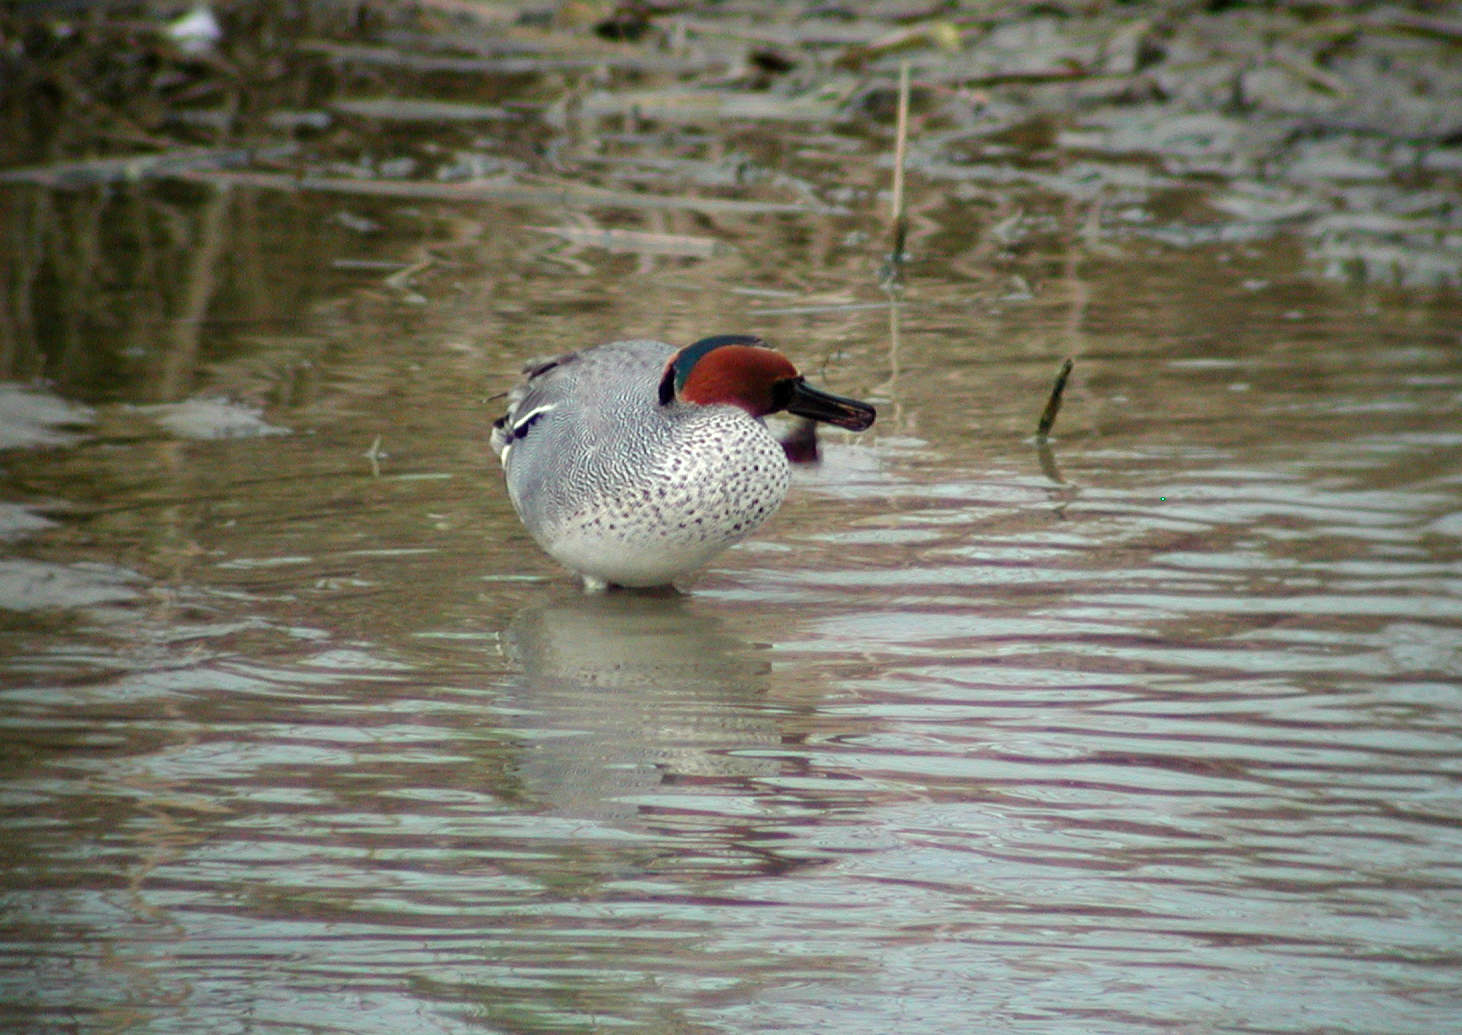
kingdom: Animalia
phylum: Chordata
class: Aves
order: Anseriformes
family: Anatidae
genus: Anas
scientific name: Anas crecca
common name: Eurasian teal
